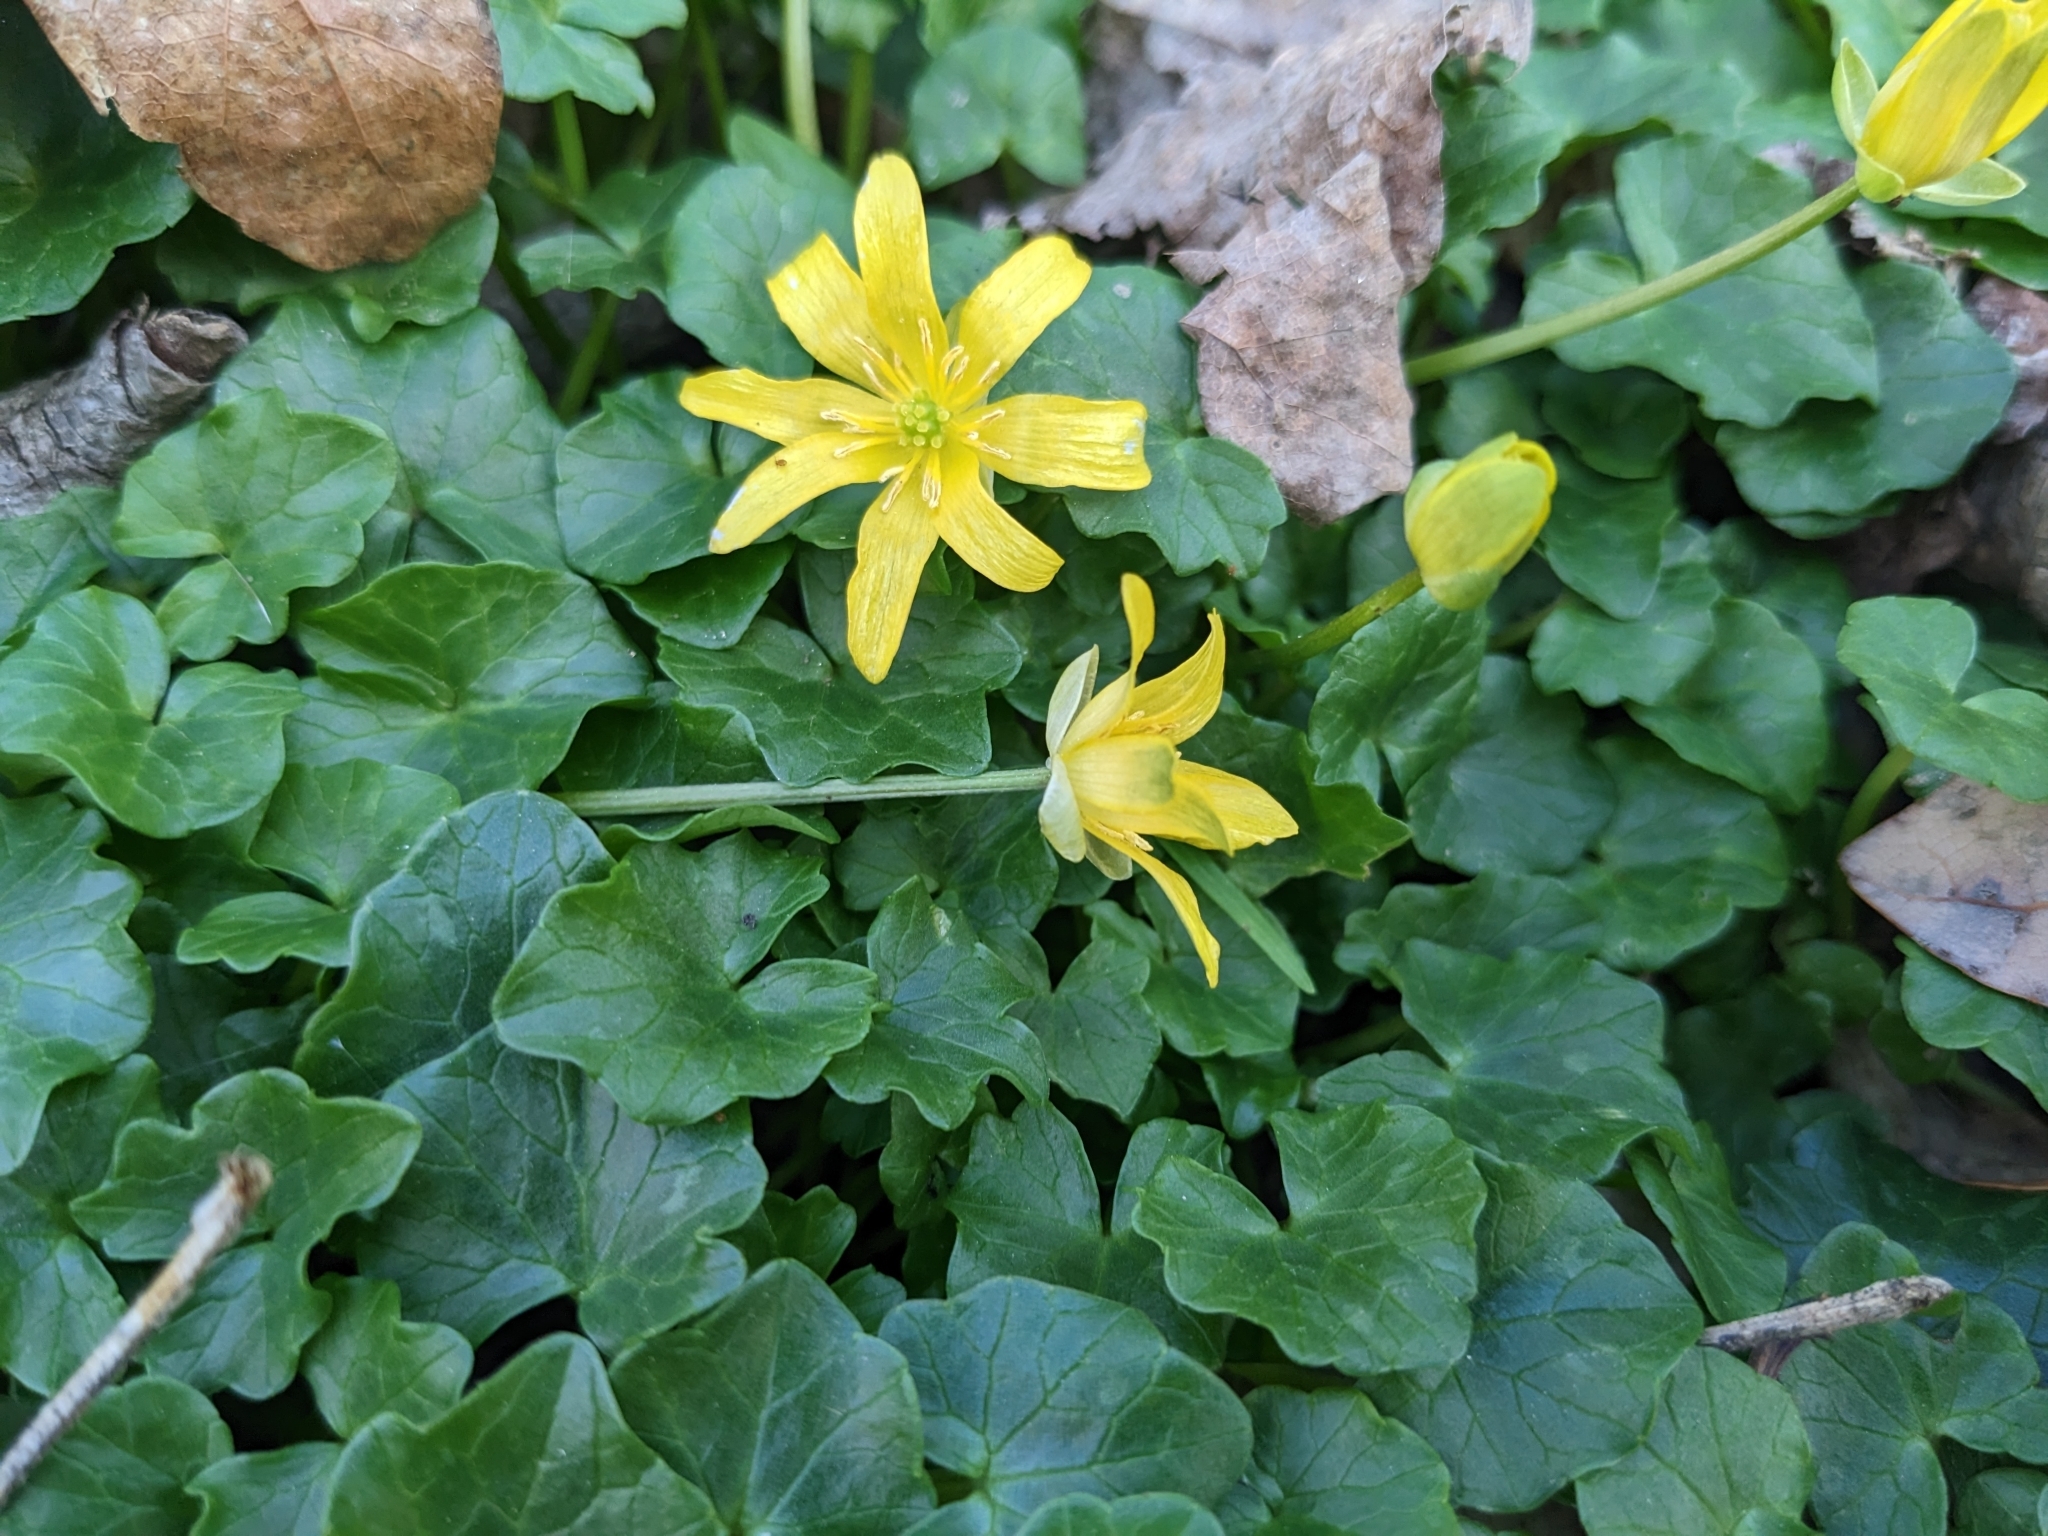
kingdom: Plantae
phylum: Tracheophyta
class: Magnoliopsida
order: Ranunculales
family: Ranunculaceae
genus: Ficaria
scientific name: Ficaria verna
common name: Lesser celandine
